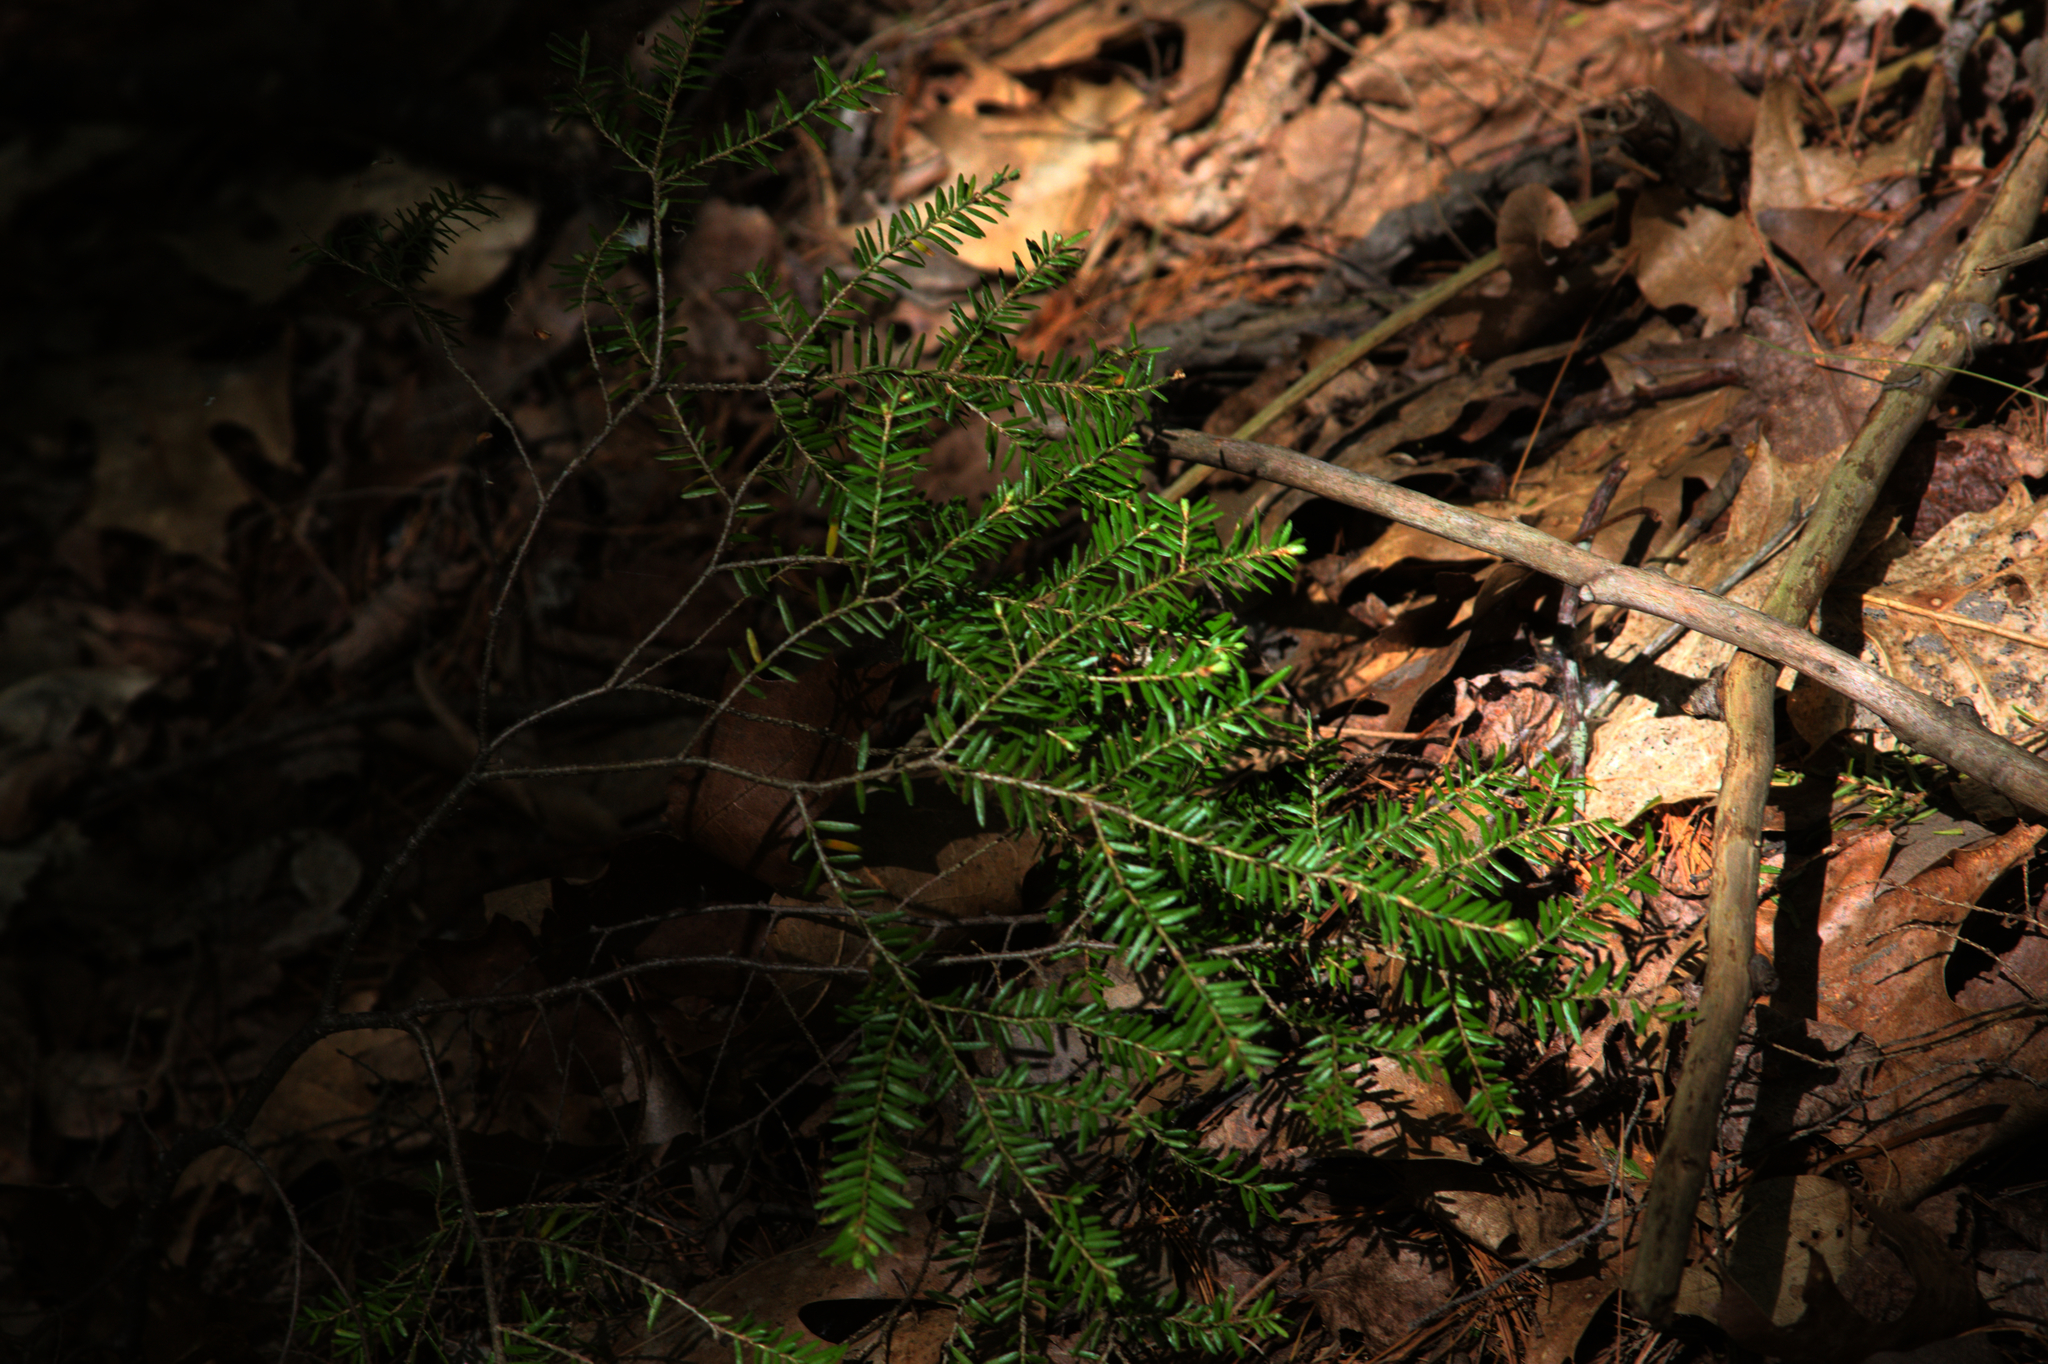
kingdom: Plantae
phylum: Tracheophyta
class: Pinopsida
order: Pinales
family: Pinaceae
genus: Tsuga
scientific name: Tsuga canadensis
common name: Eastern hemlock
